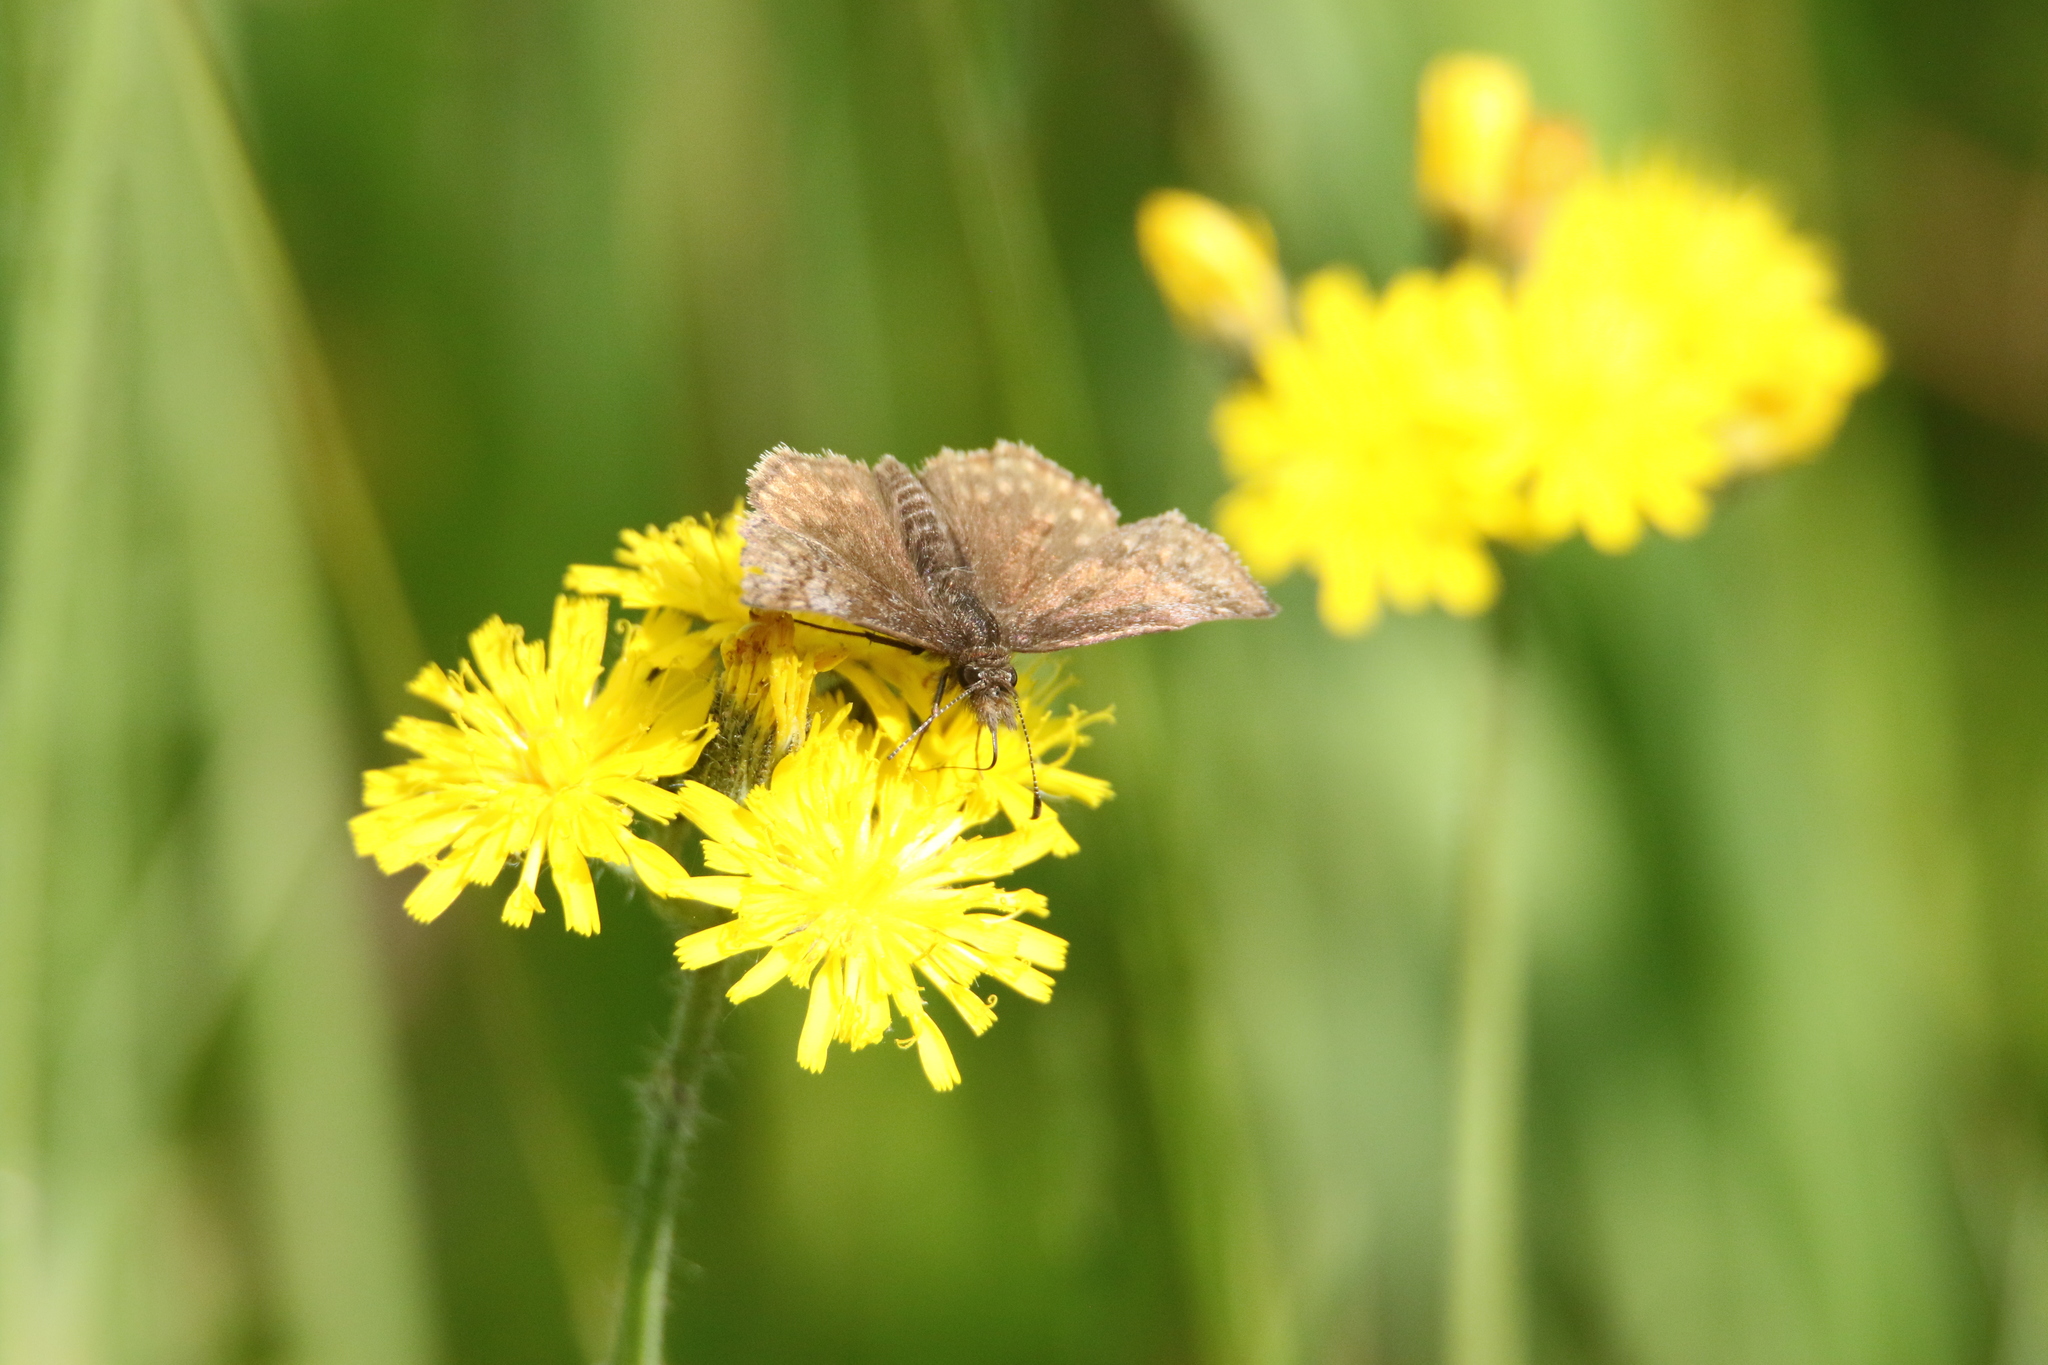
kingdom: Animalia
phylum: Arthropoda
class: Insecta
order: Lepidoptera
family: Hesperiidae
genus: Erynnis
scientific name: Erynnis icelus
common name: Dreamy duskywing
